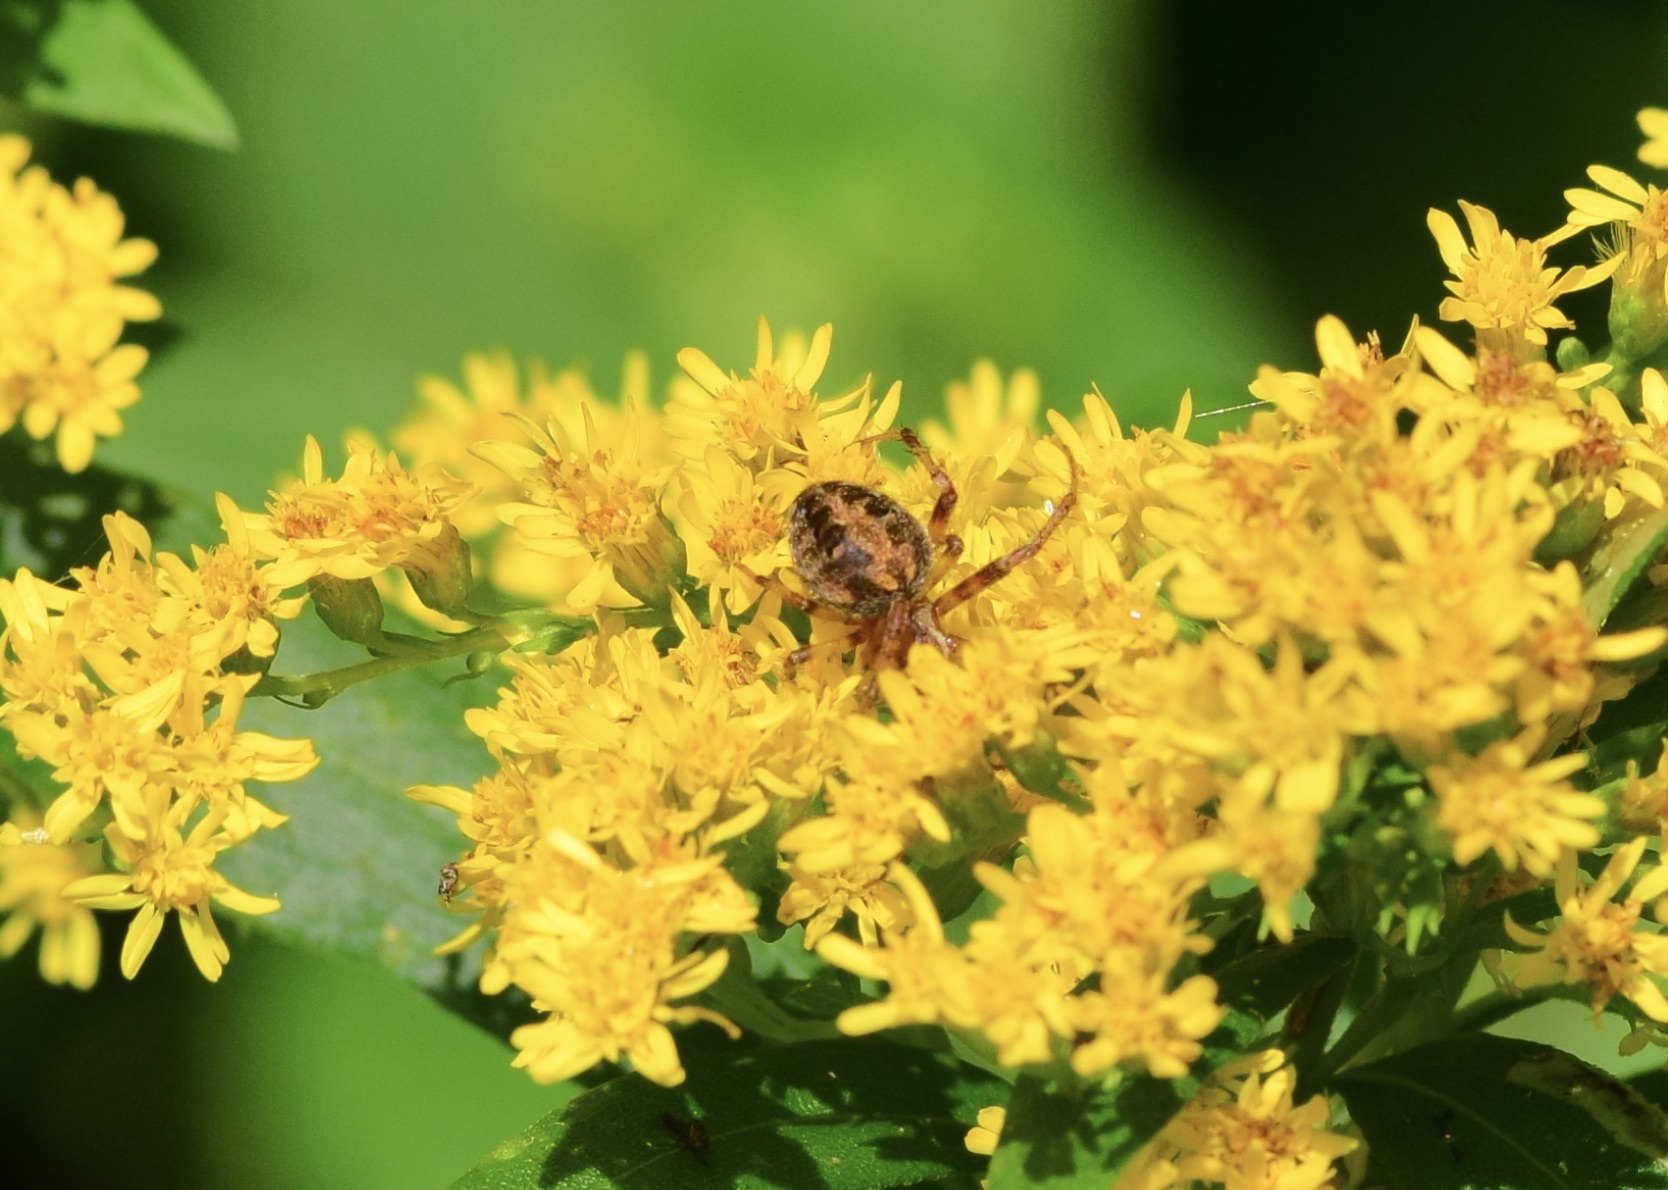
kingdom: Animalia
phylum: Arthropoda
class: Arachnida
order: Araneae
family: Araneidae
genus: Neoscona
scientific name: Neoscona arabesca
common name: Orb weavers
